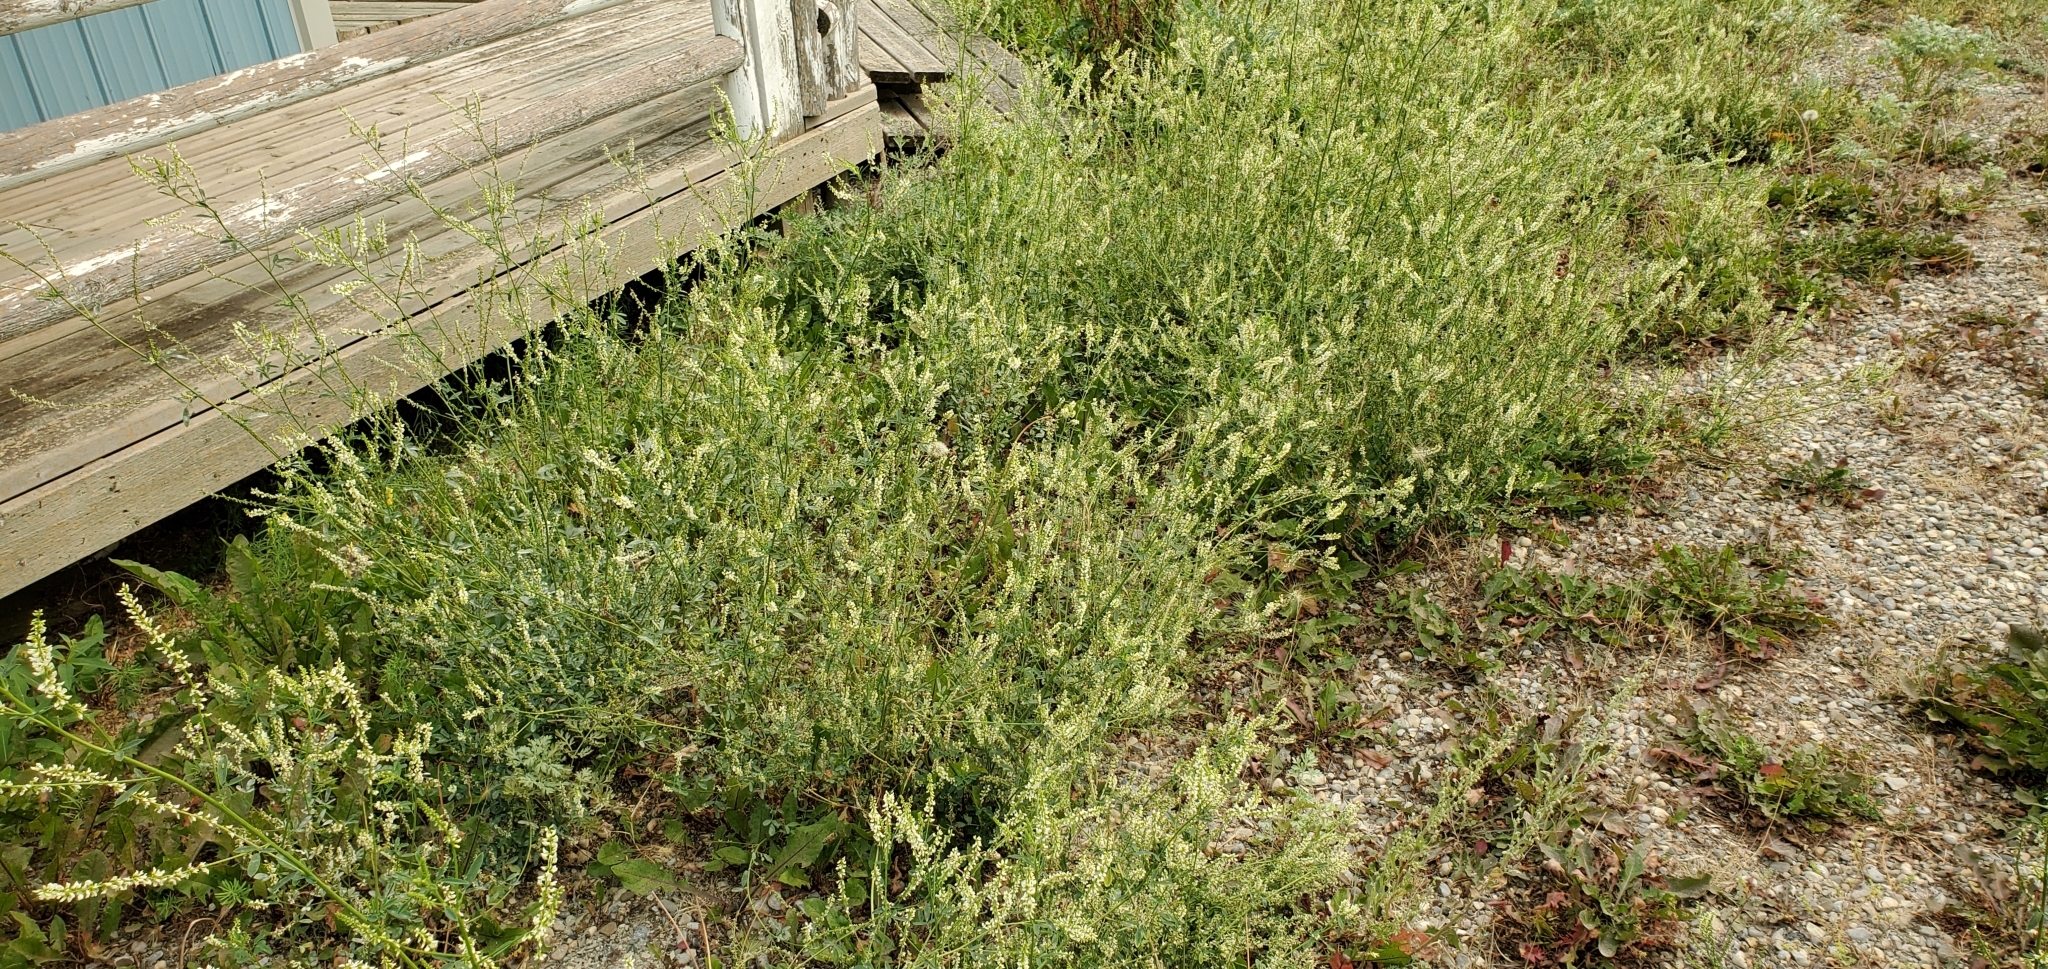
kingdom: Plantae
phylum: Tracheophyta
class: Magnoliopsida
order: Fabales
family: Fabaceae
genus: Melilotus
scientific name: Melilotus albus
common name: White melilot
